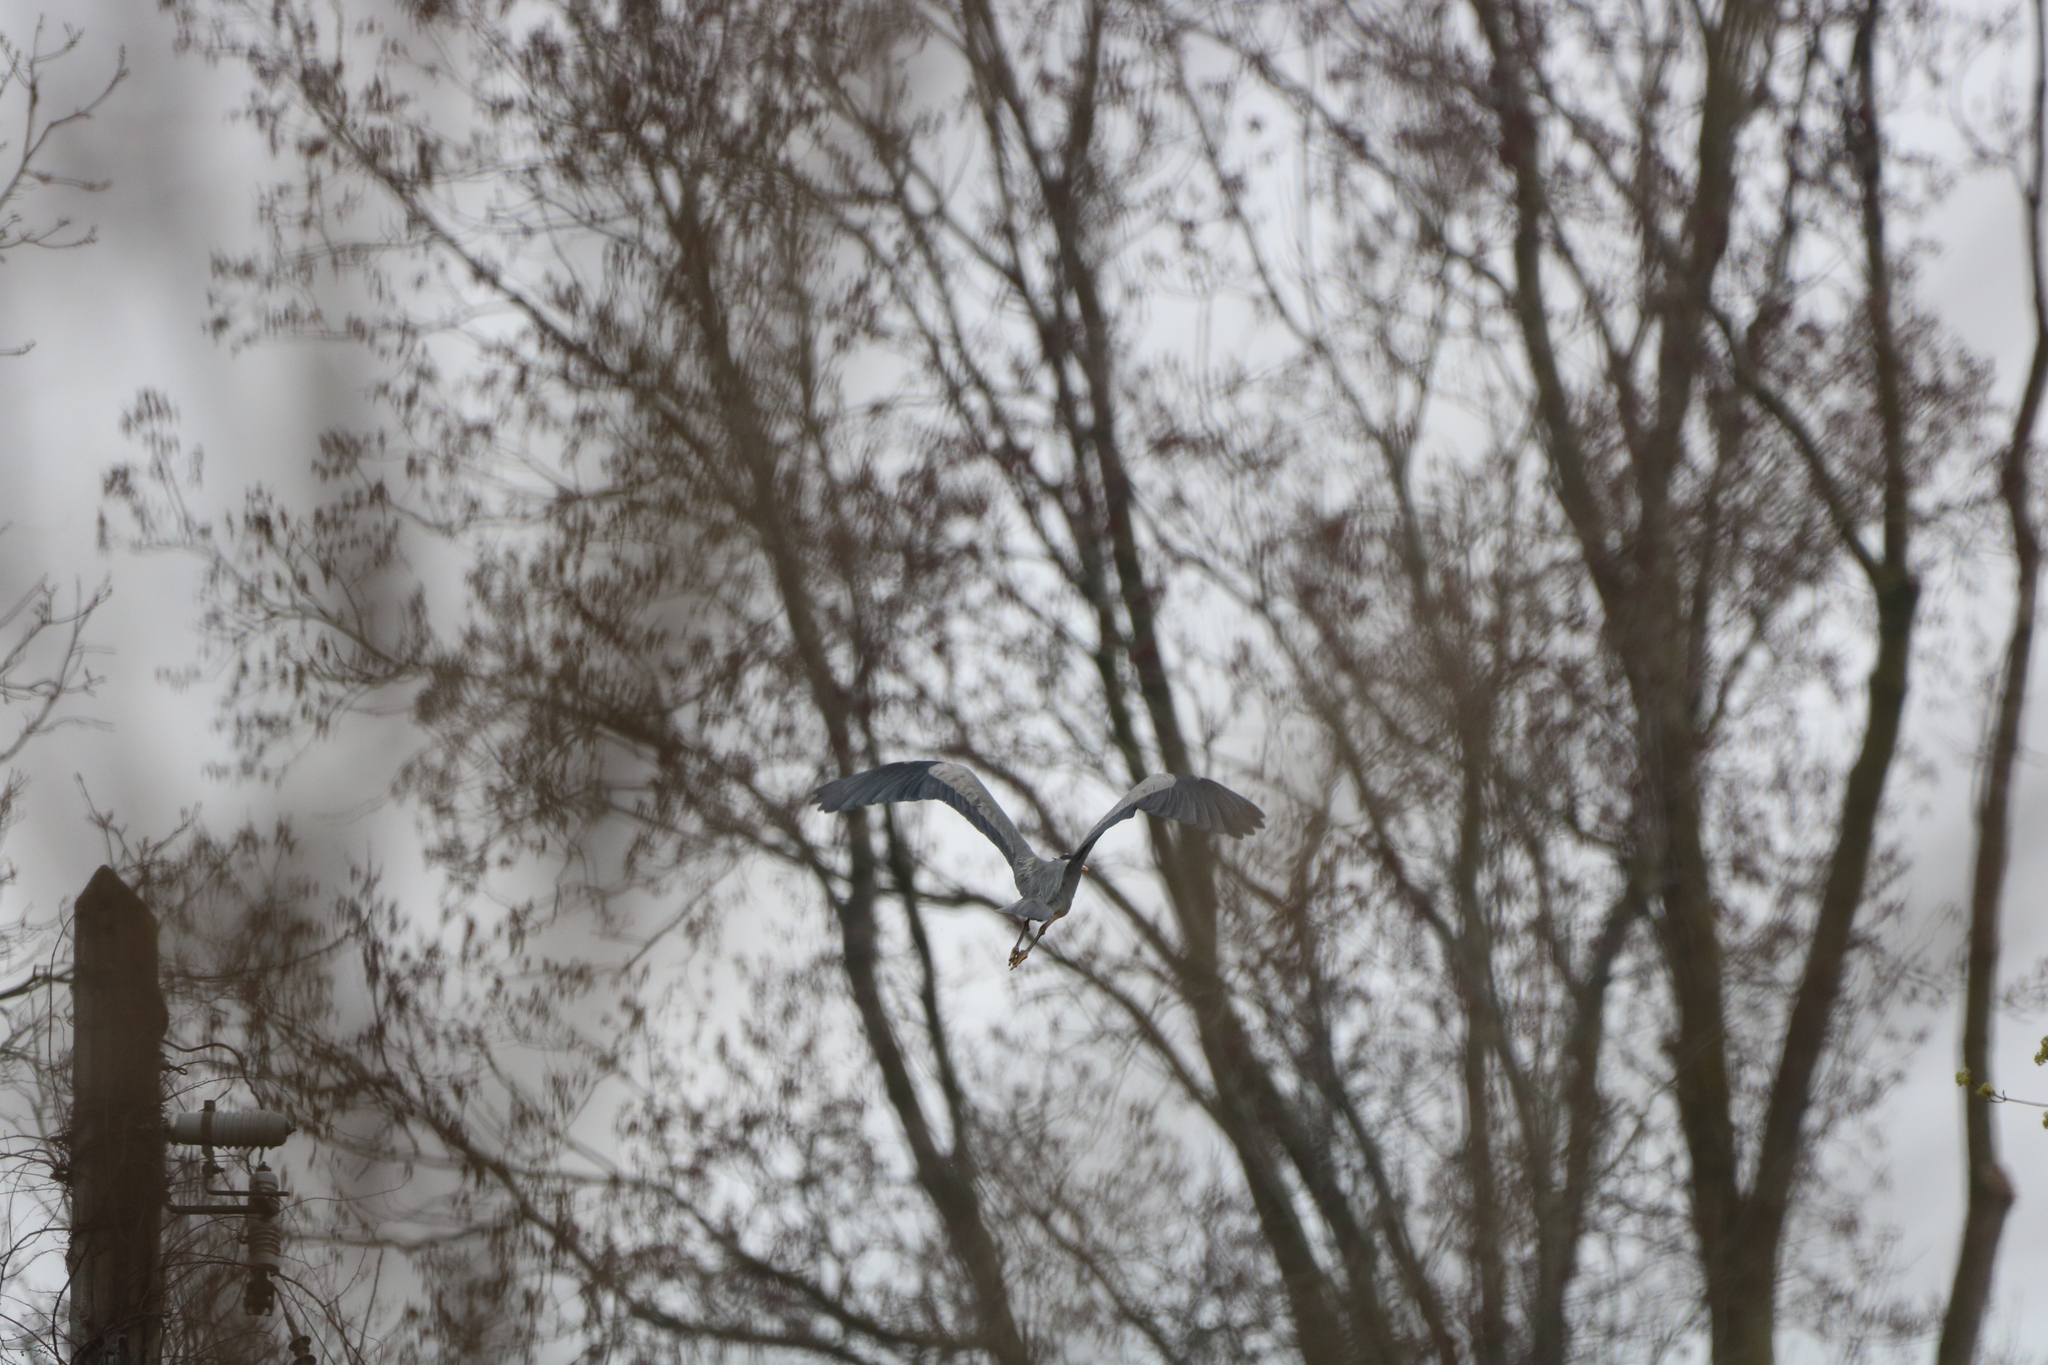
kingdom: Animalia
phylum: Chordata
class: Aves
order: Pelecaniformes
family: Ardeidae
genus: Ardea
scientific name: Ardea herodias
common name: Great blue heron
